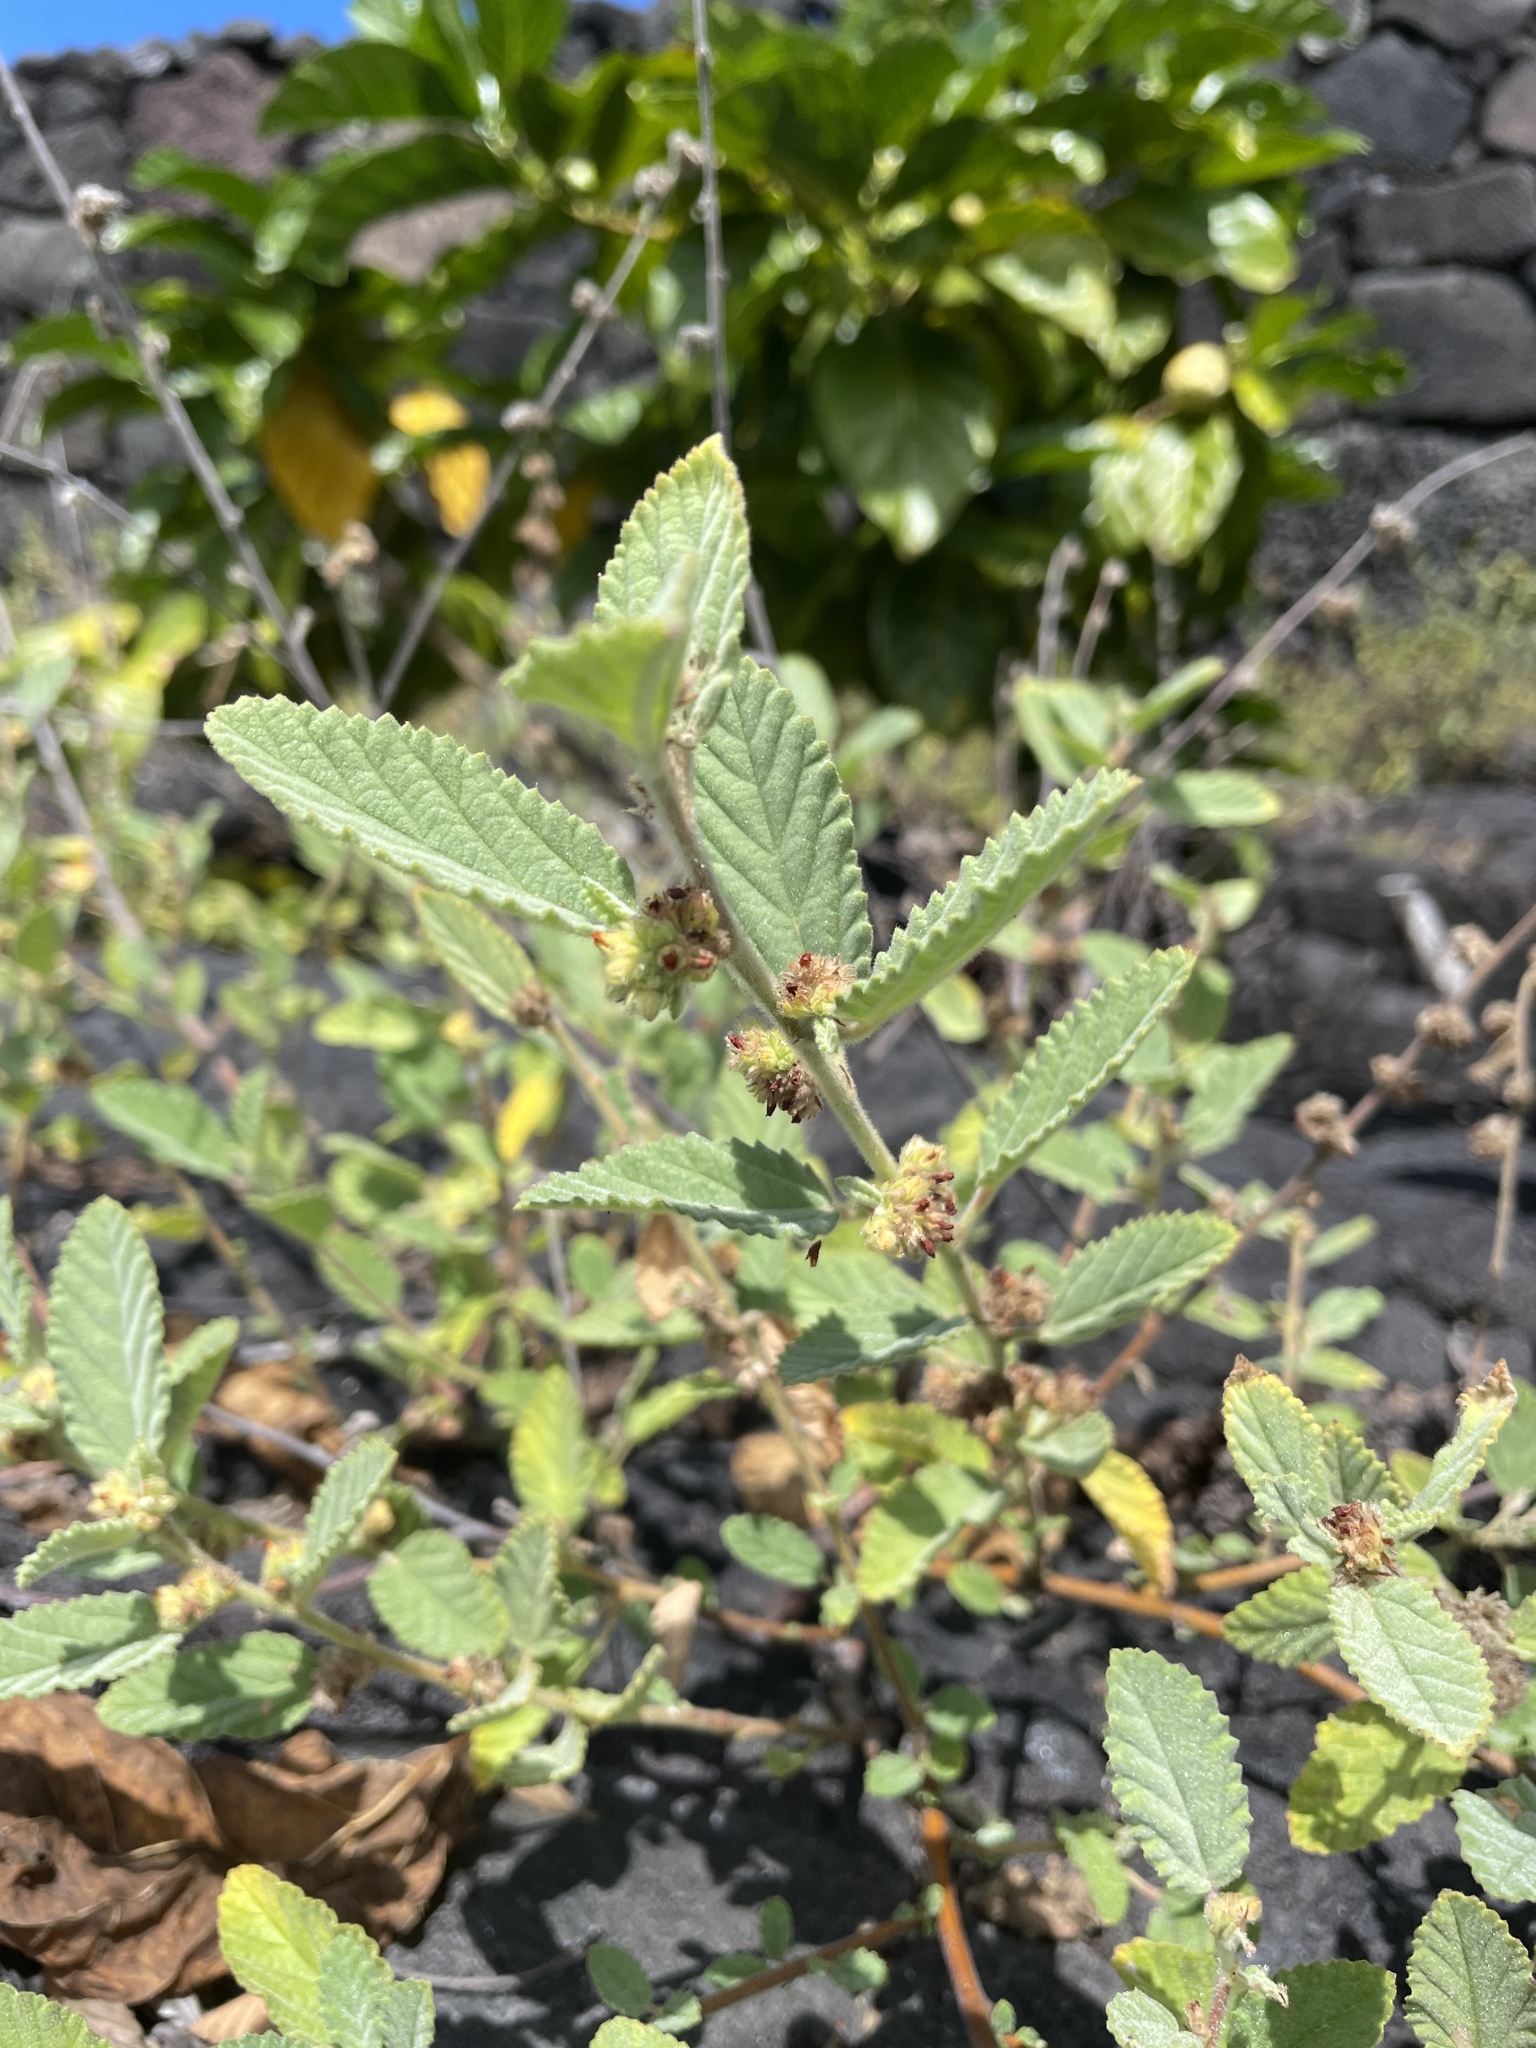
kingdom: Plantae
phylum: Tracheophyta
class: Magnoliopsida
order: Malvales
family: Malvaceae
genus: Waltheria
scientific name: Waltheria indica
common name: Leather-coat
